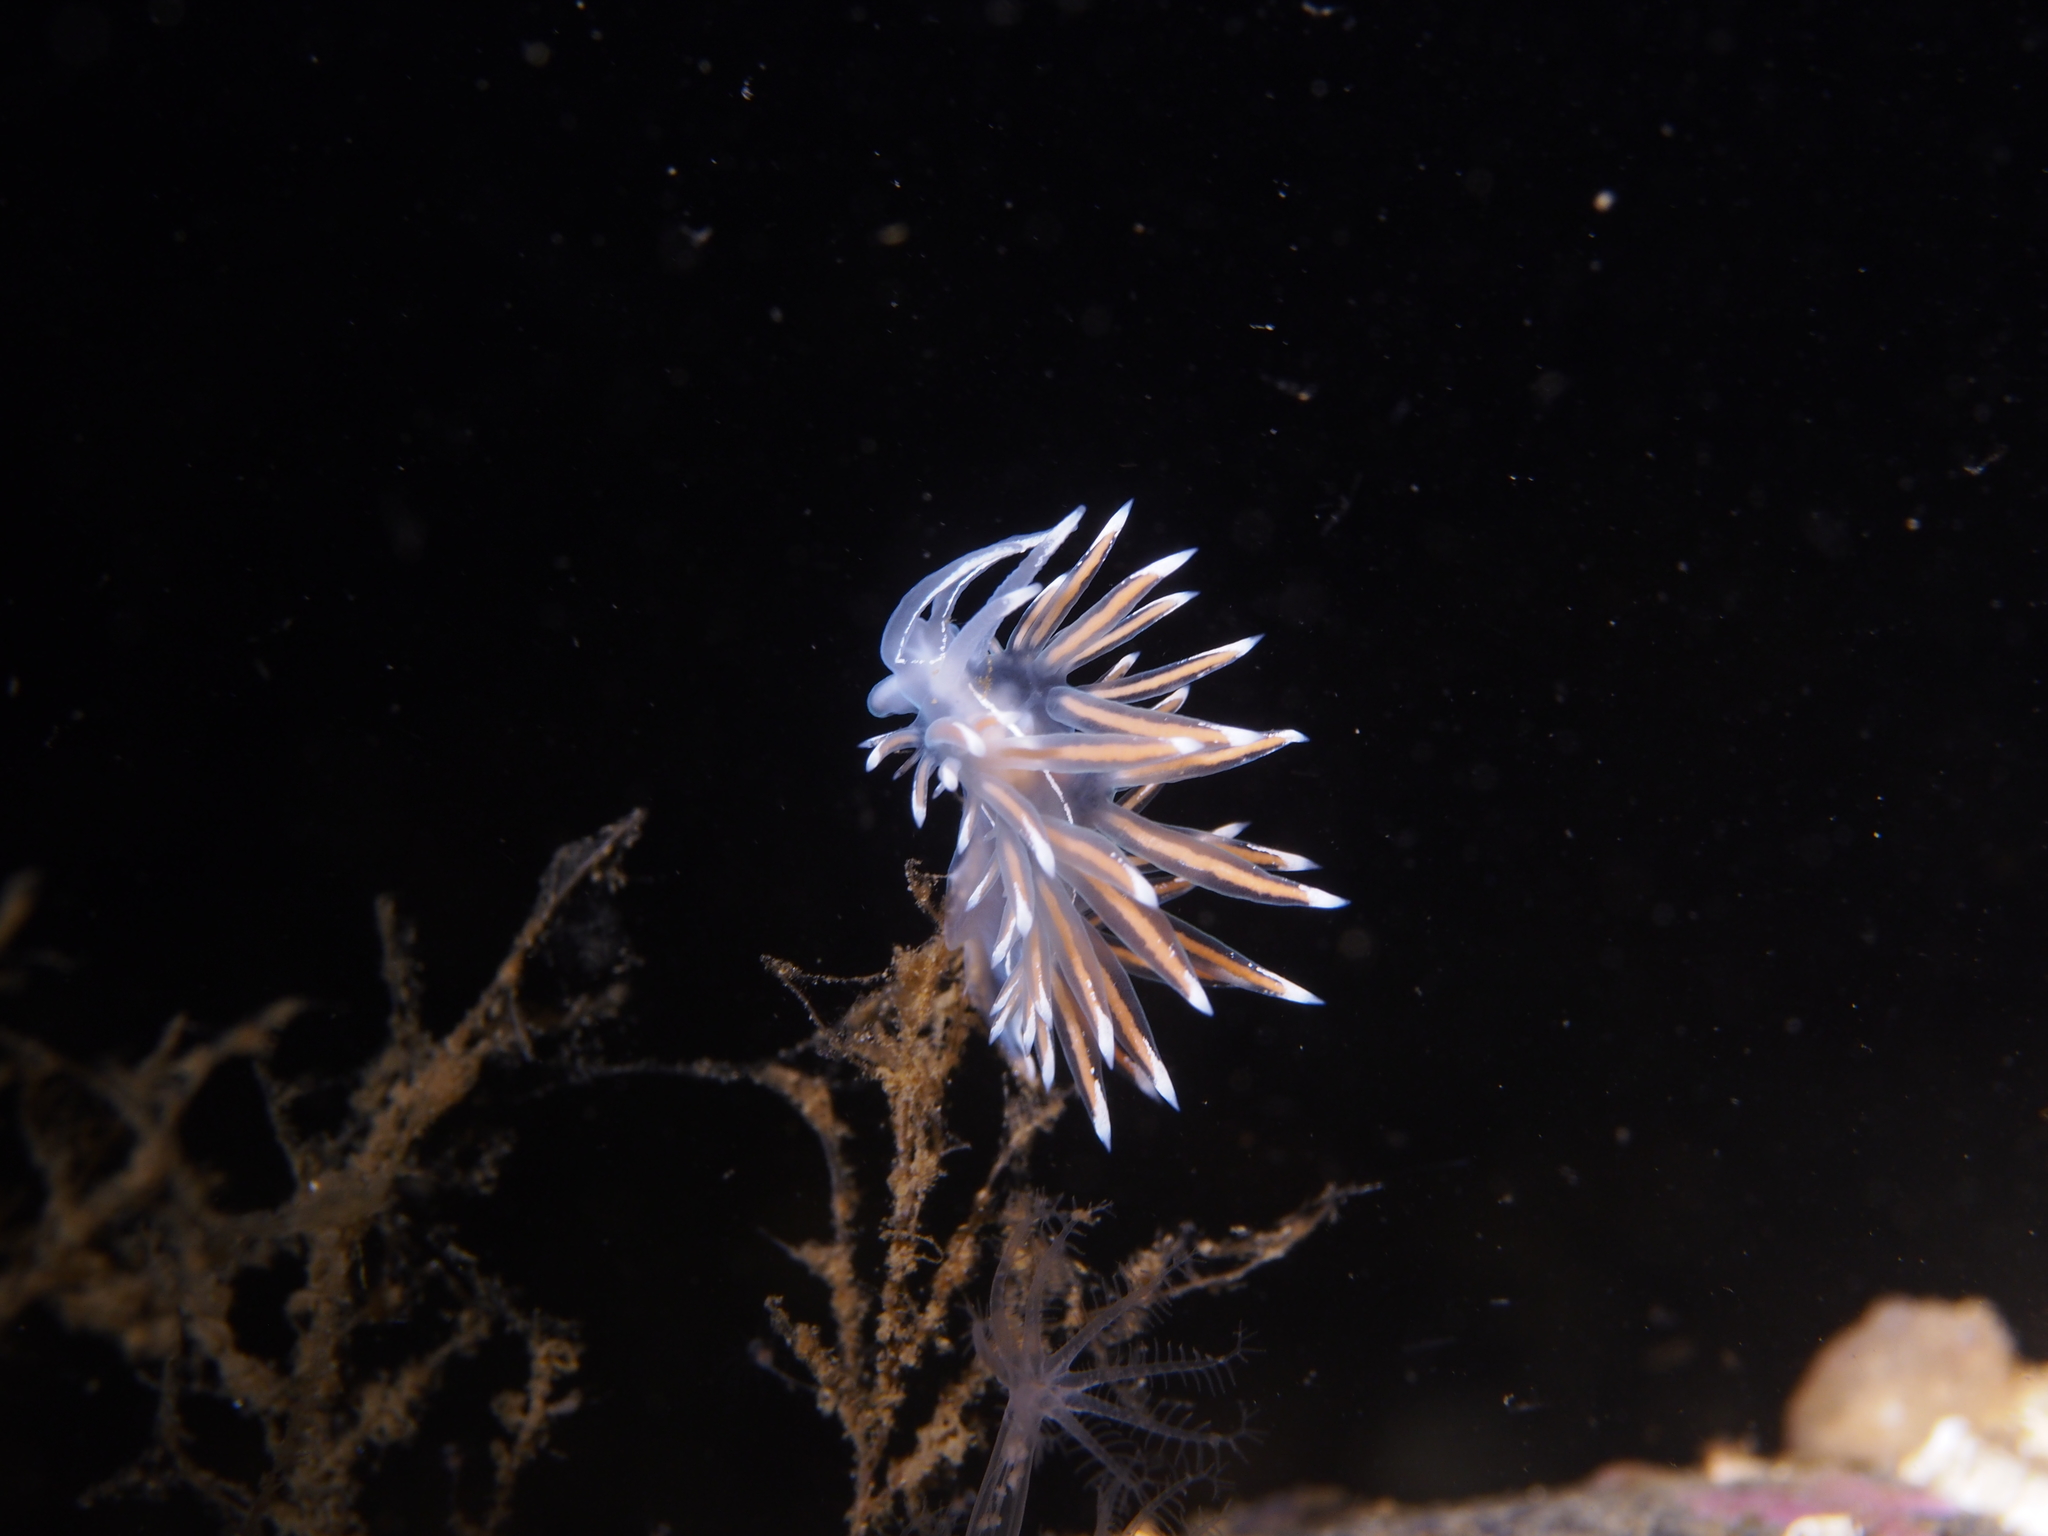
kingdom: Animalia
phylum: Mollusca
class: Gastropoda
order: Nudibranchia
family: Coryphellidae
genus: Coryphella
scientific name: Coryphella lineata
